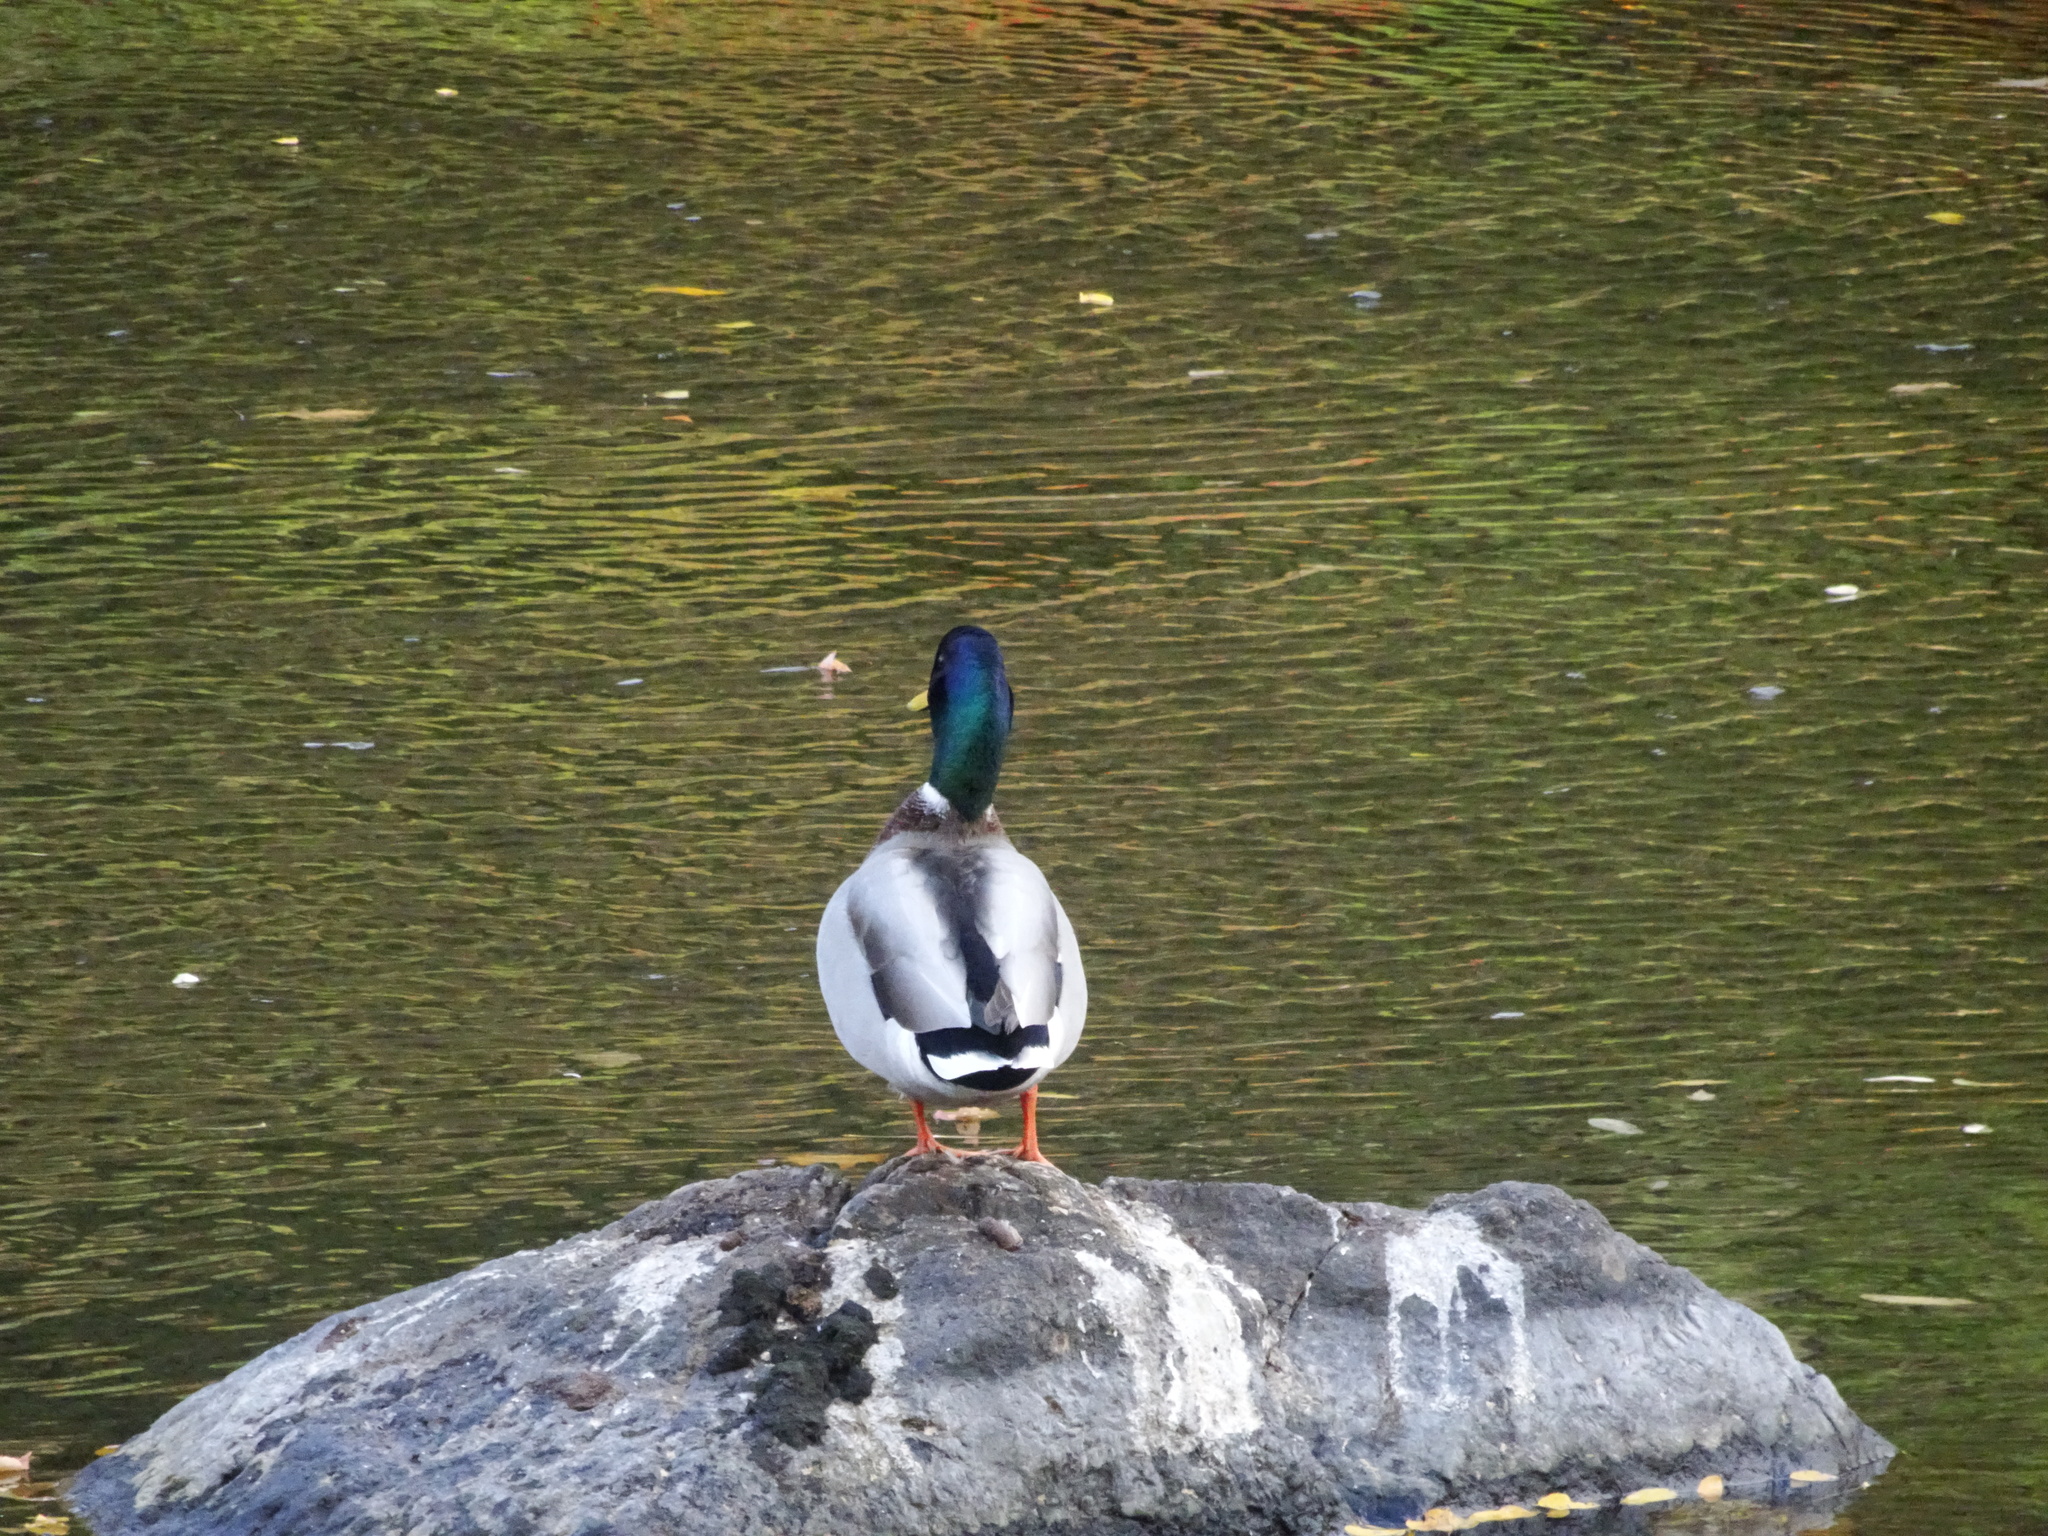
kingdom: Animalia
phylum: Chordata
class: Aves
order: Anseriformes
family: Anatidae
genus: Anas
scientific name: Anas platyrhynchos
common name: Mallard
